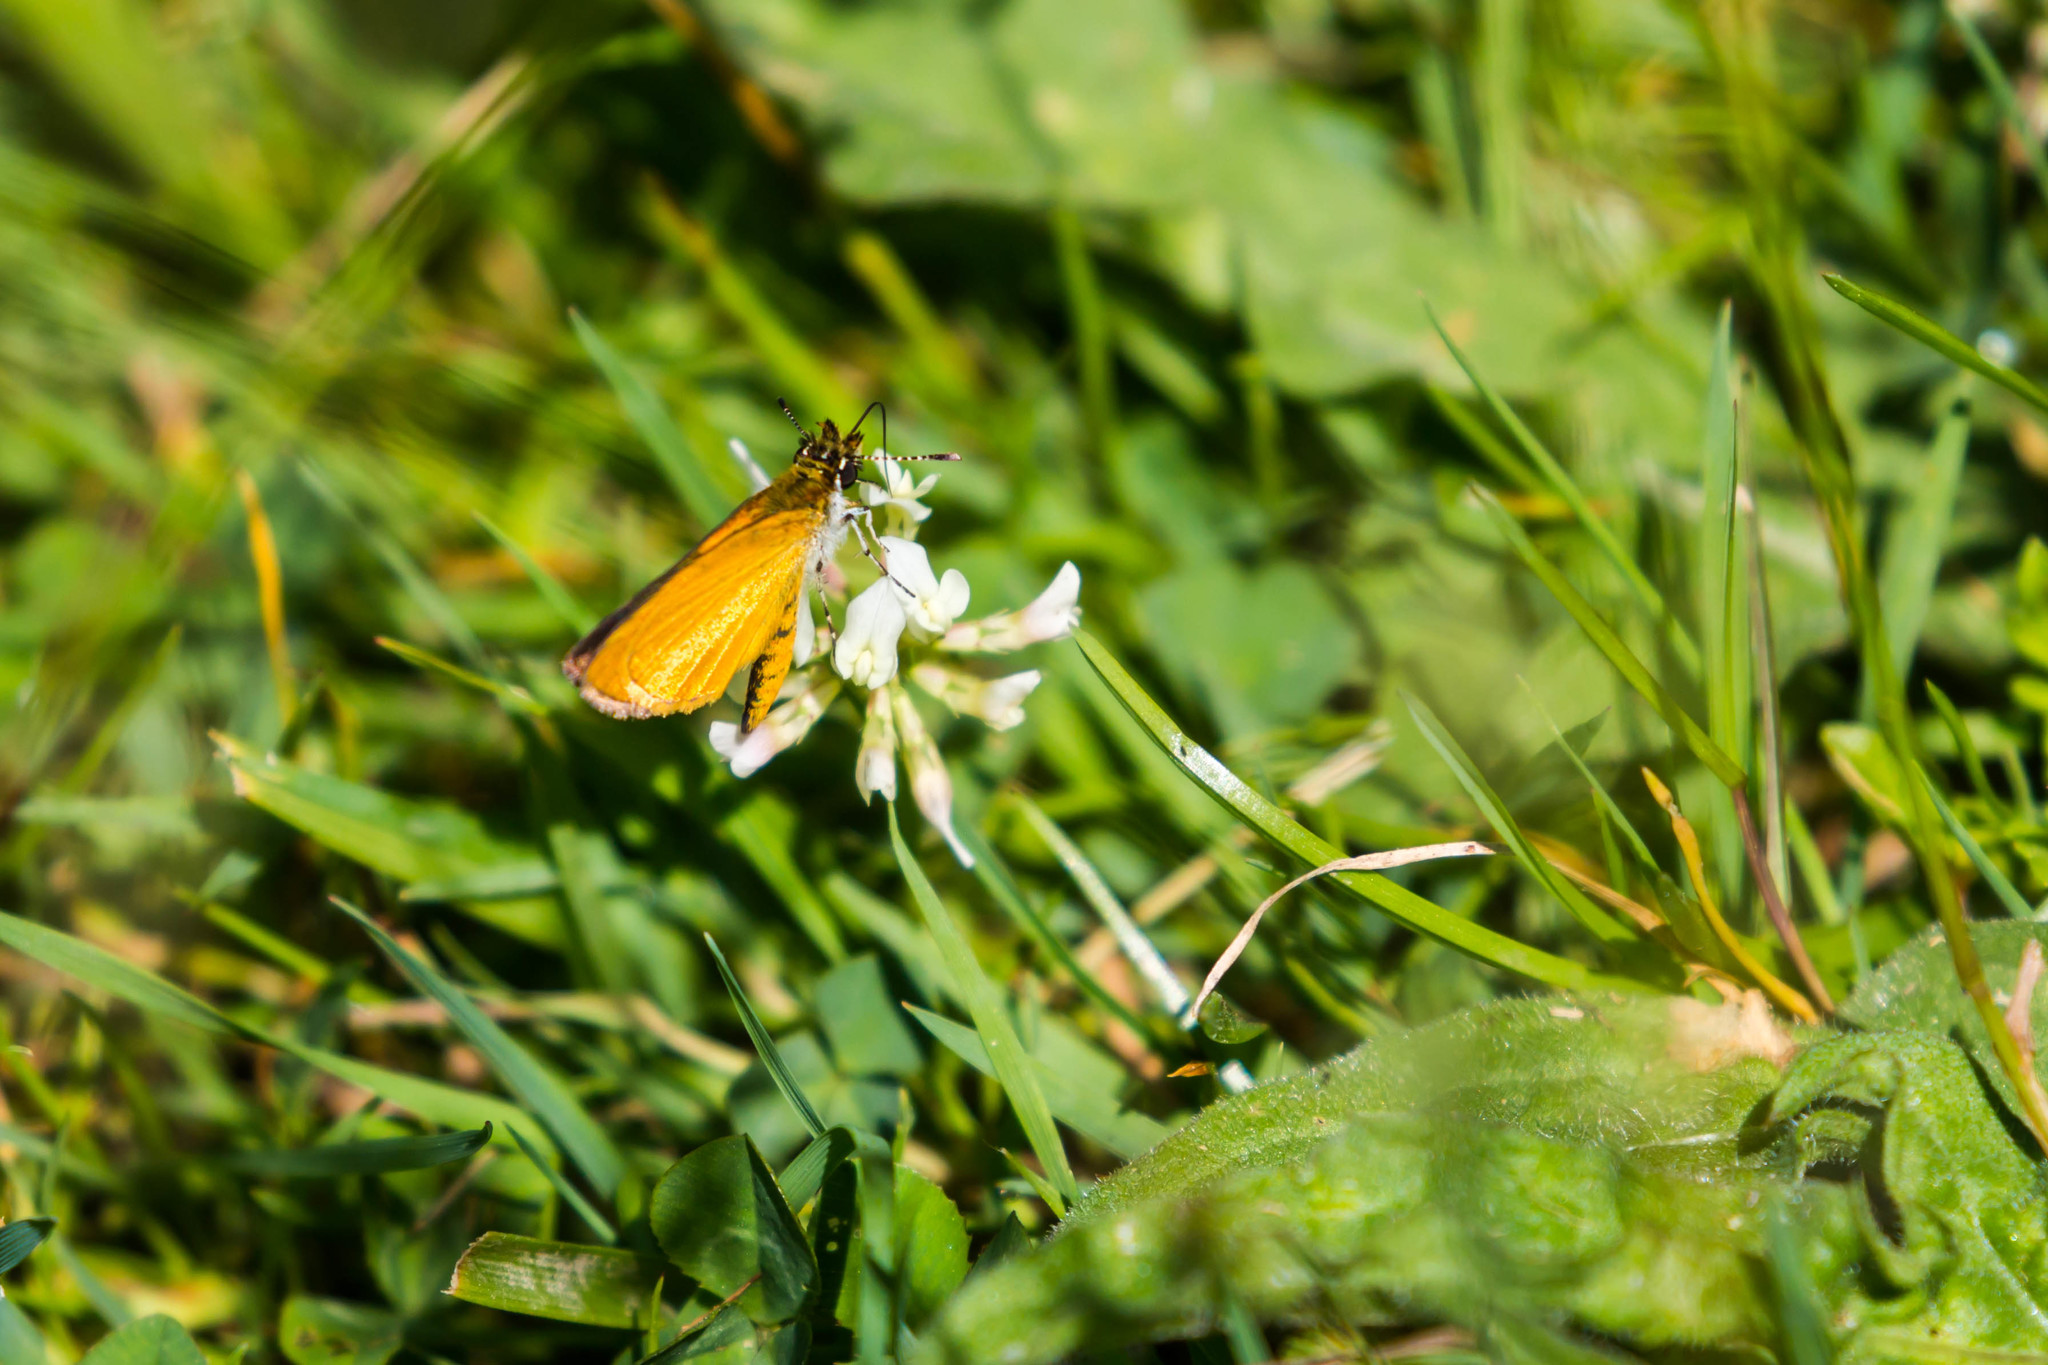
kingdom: Animalia
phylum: Arthropoda
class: Insecta
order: Lepidoptera
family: Hesperiidae
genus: Ancyloxypha
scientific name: Ancyloxypha numitor
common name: Least skipper
